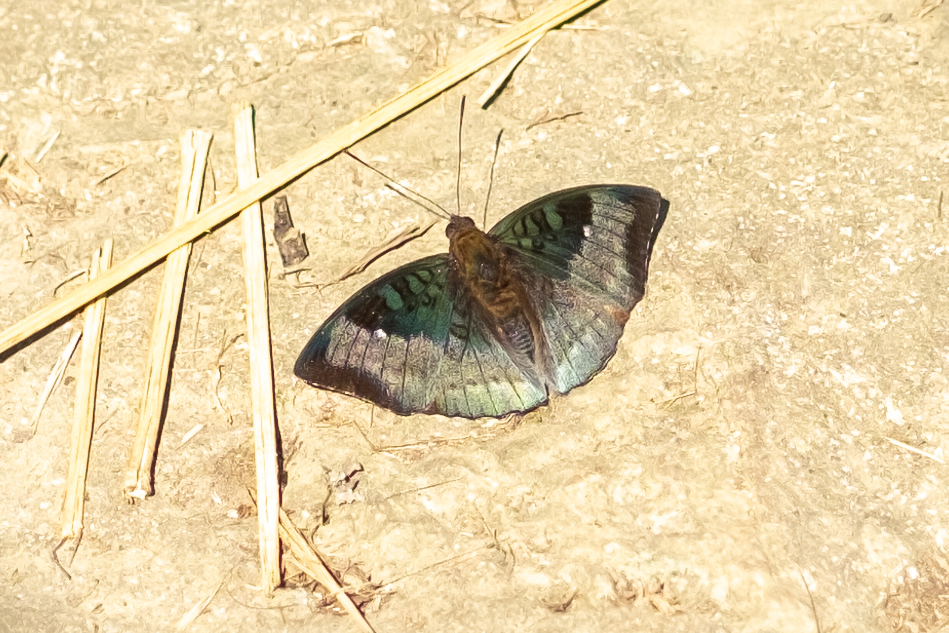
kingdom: Animalia
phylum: Arthropoda
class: Insecta
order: Lepidoptera
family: Nymphalidae
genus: Euthalia
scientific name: Euthalia monina
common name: Powdered baron
